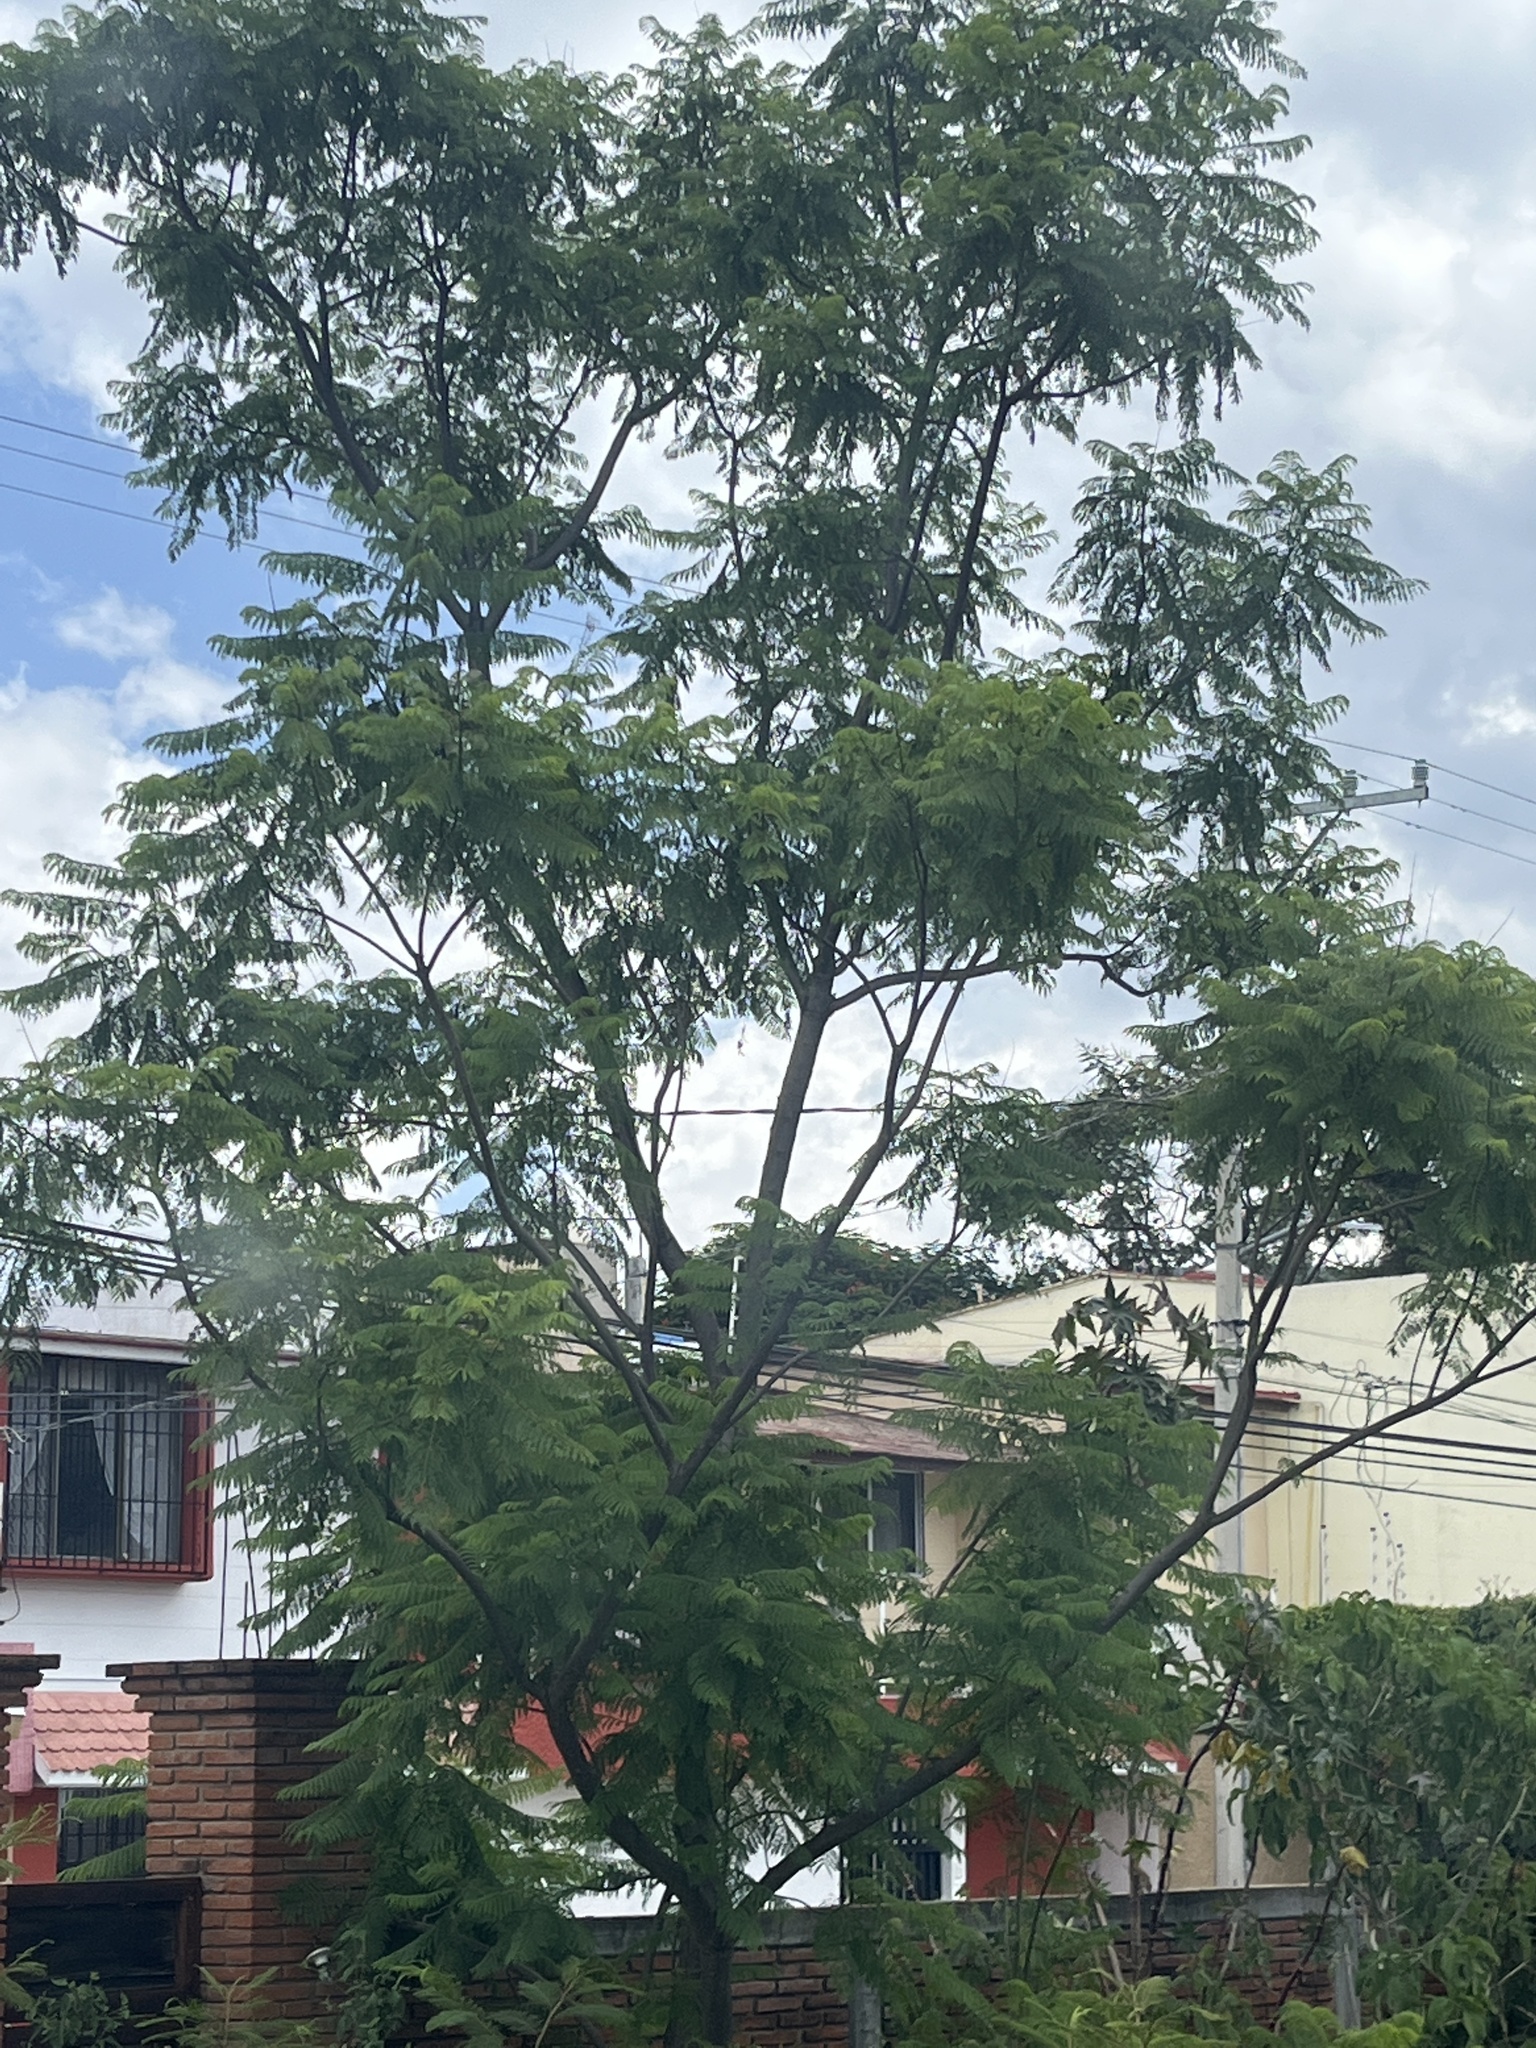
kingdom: Plantae
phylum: Tracheophyta
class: Magnoliopsida
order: Lamiales
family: Bignoniaceae
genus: Jacaranda
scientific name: Jacaranda mimosifolia
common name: Black poui
